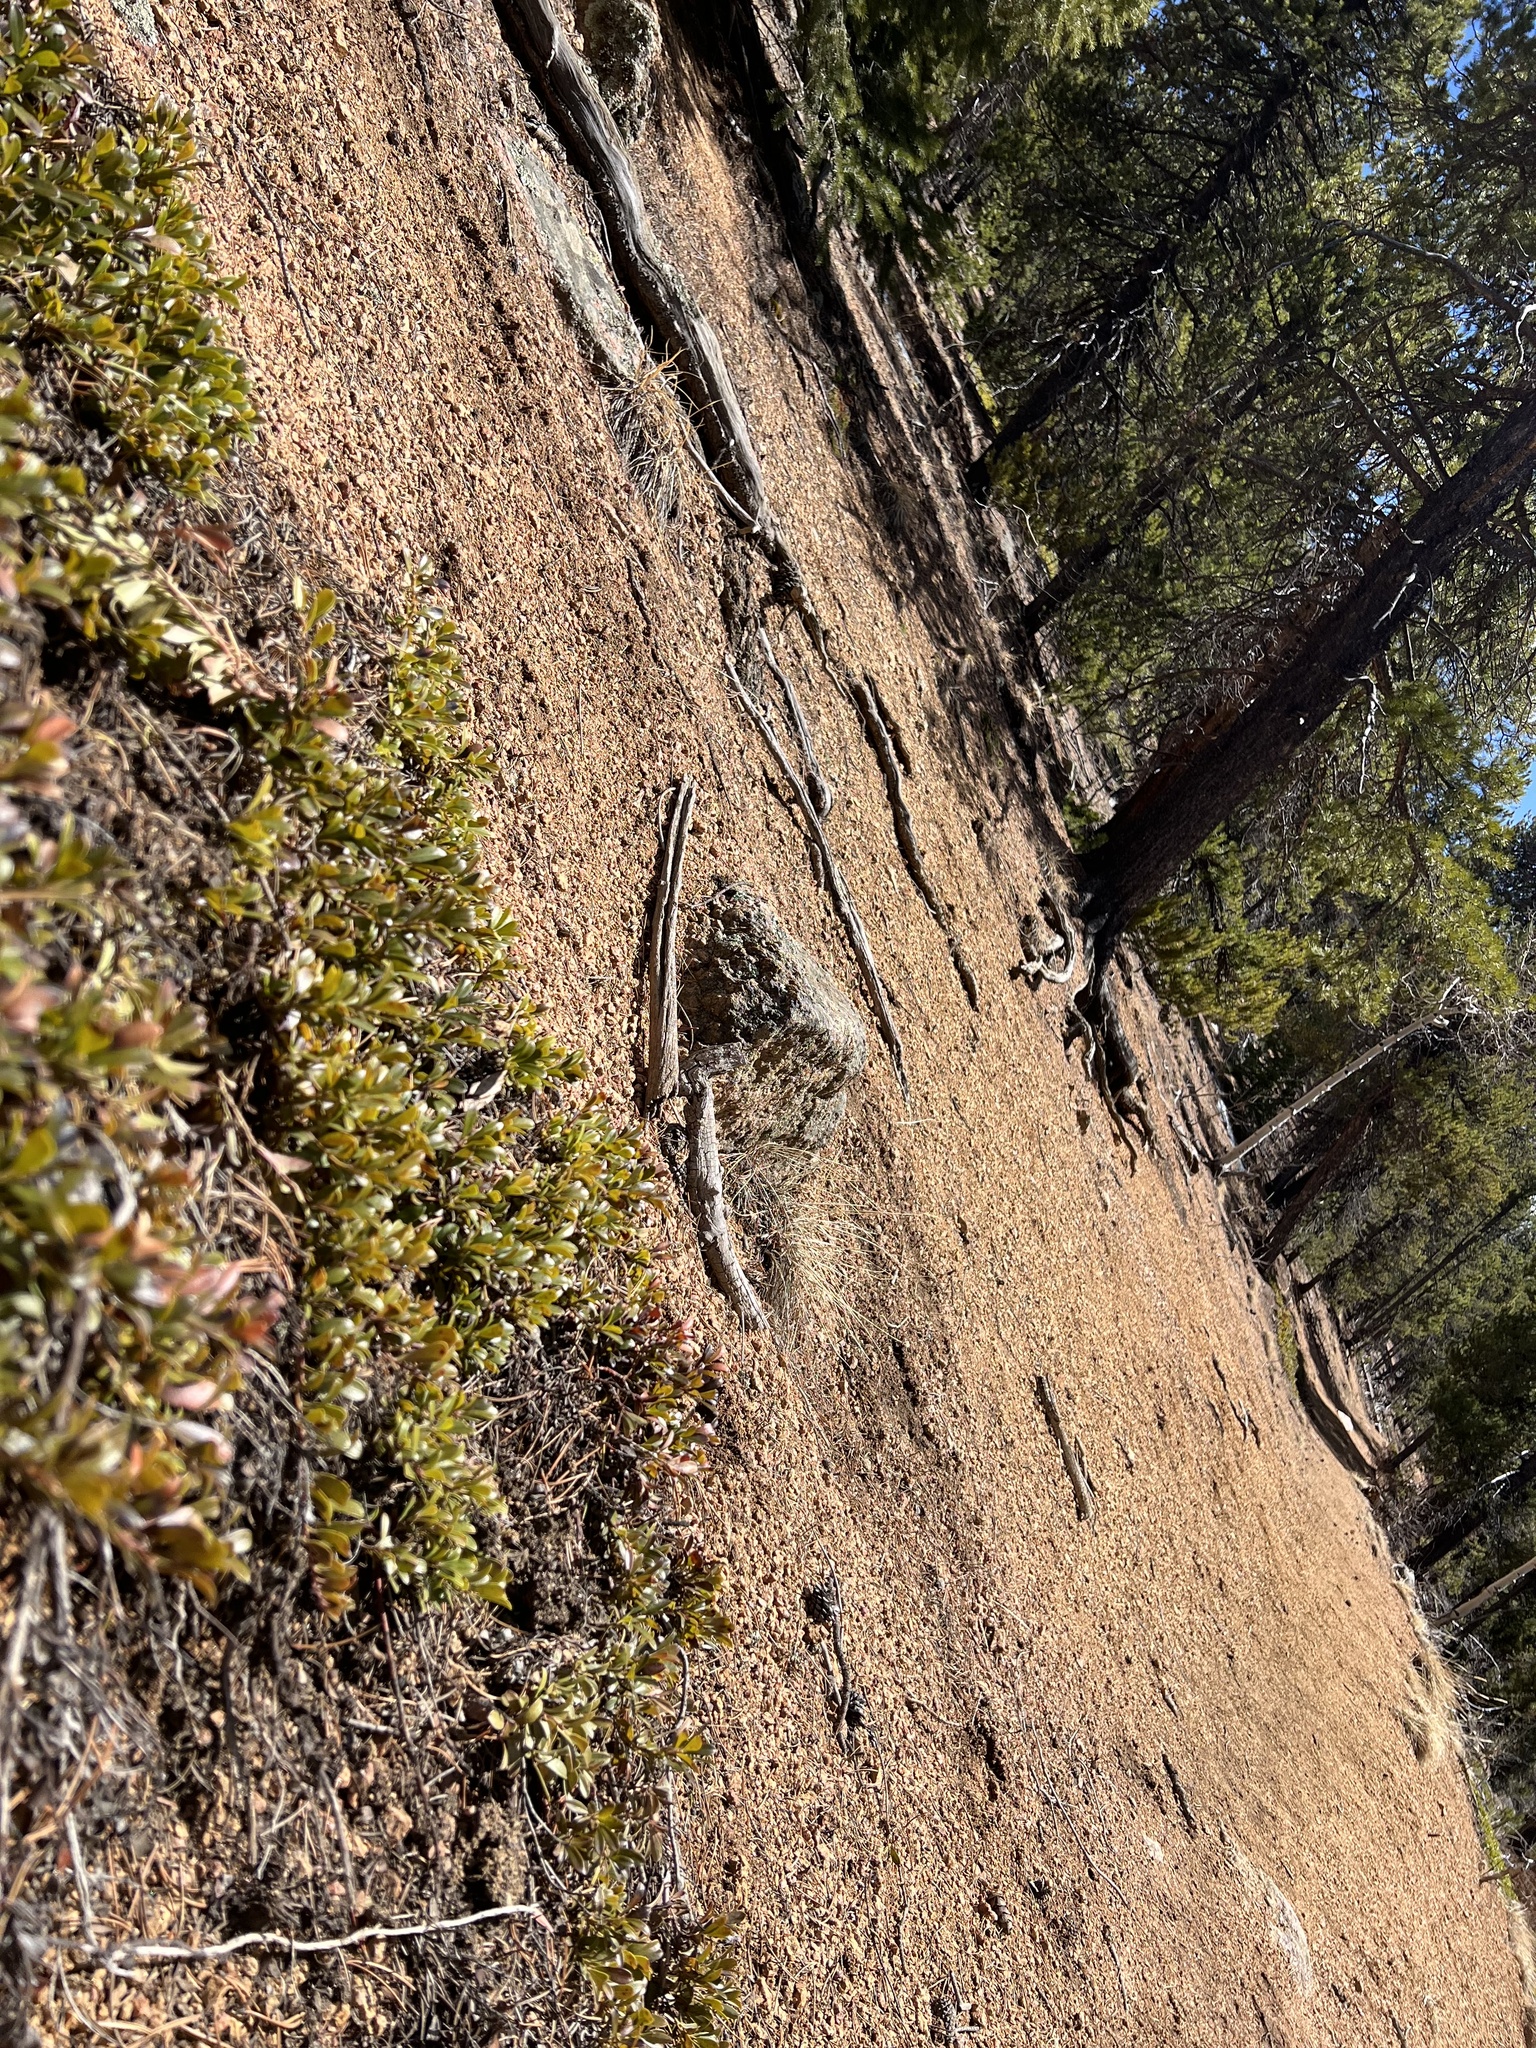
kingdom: Plantae
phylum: Tracheophyta
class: Magnoliopsida
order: Ericales
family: Ericaceae
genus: Arctostaphylos
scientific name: Arctostaphylos uva-ursi
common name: Bearberry
